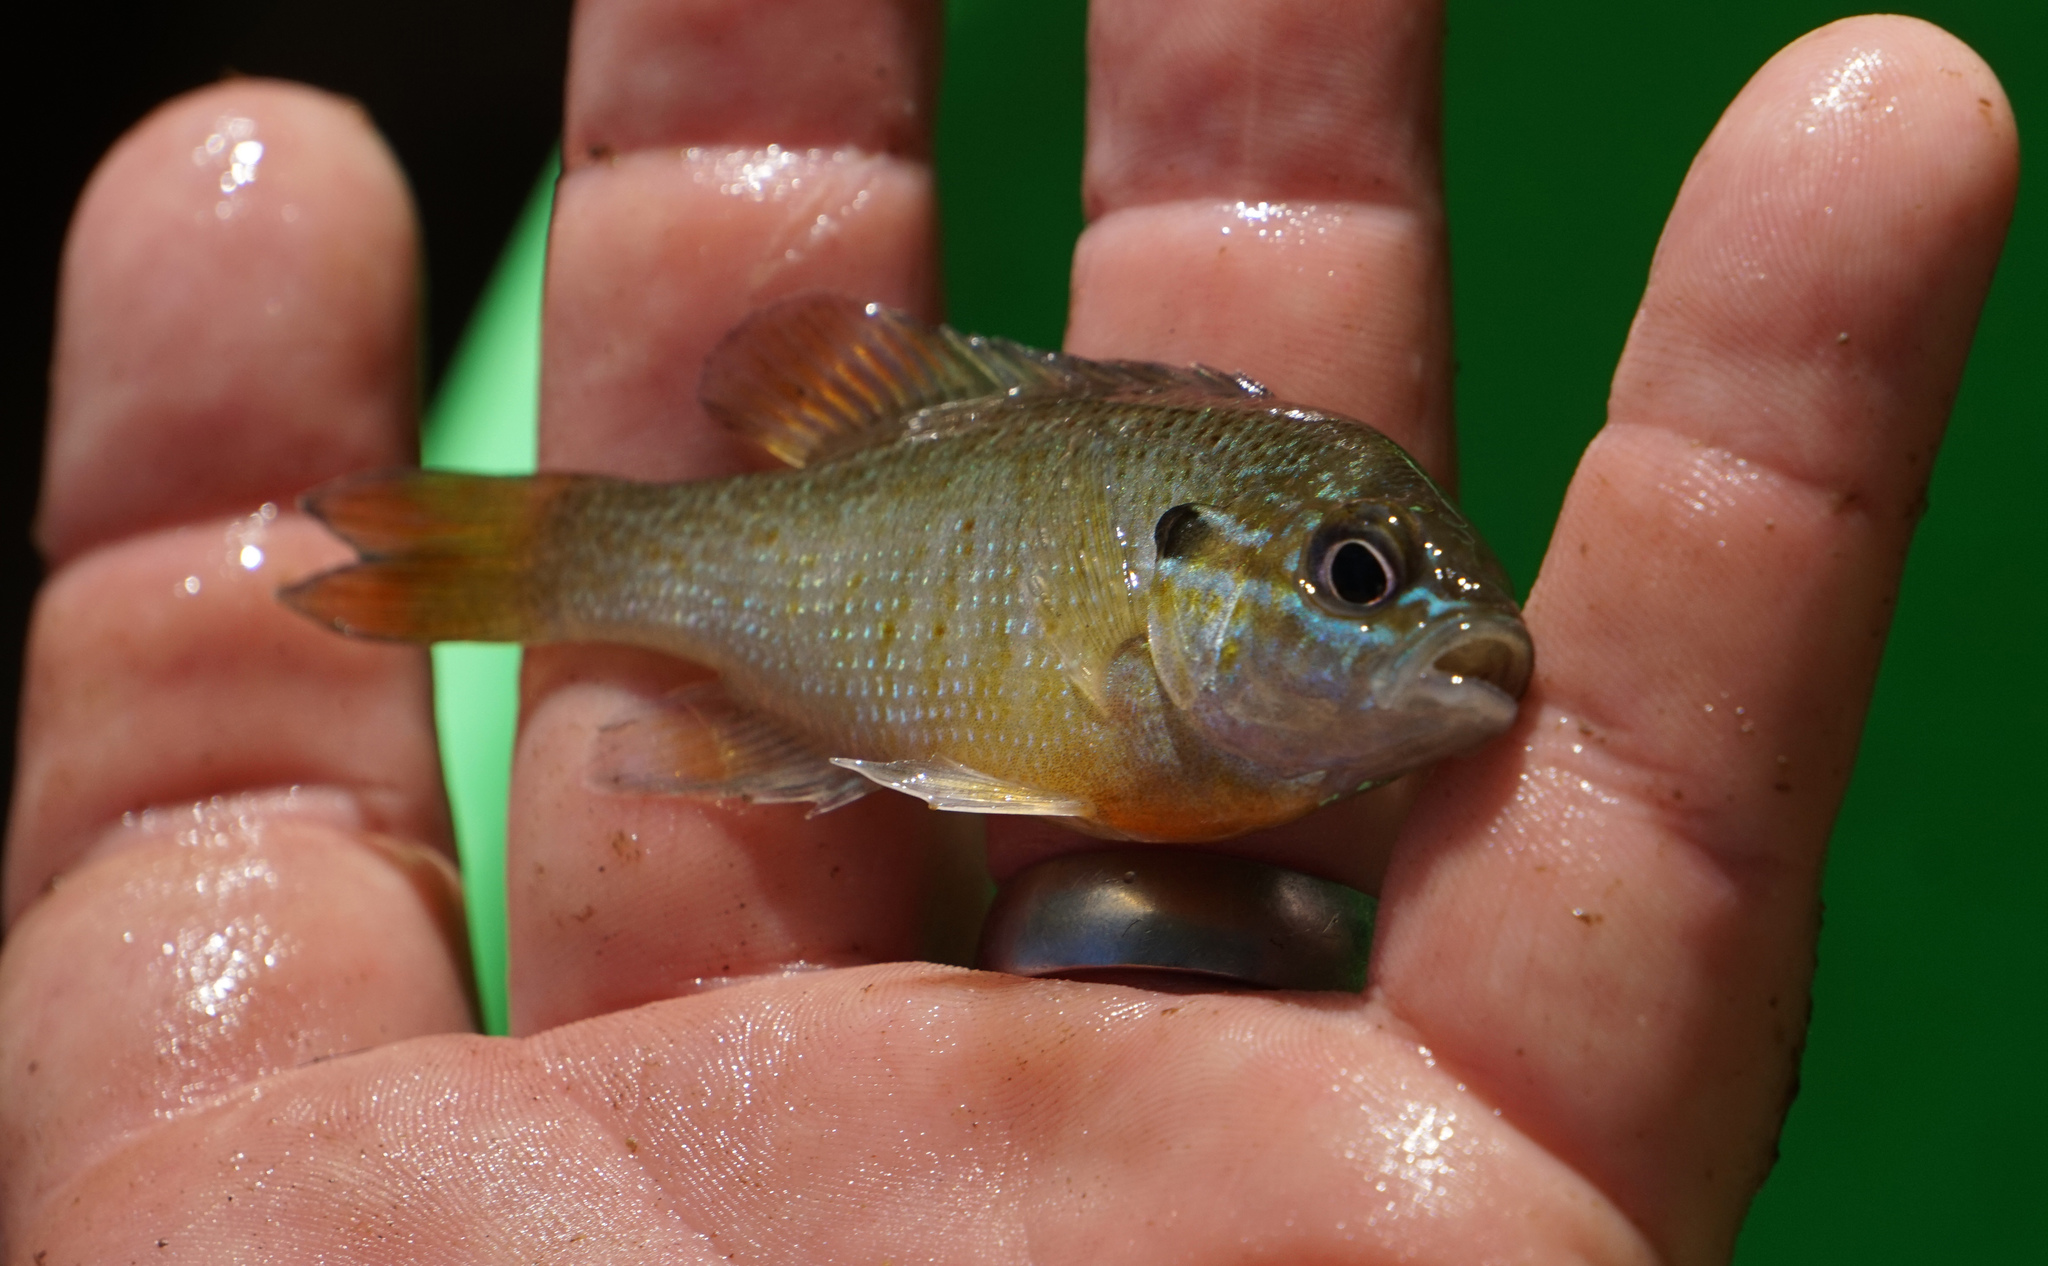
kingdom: Animalia
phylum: Chordata
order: Perciformes
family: Centrarchidae
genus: Lepomis
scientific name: Lepomis auritus
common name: Redbreast sunfish
